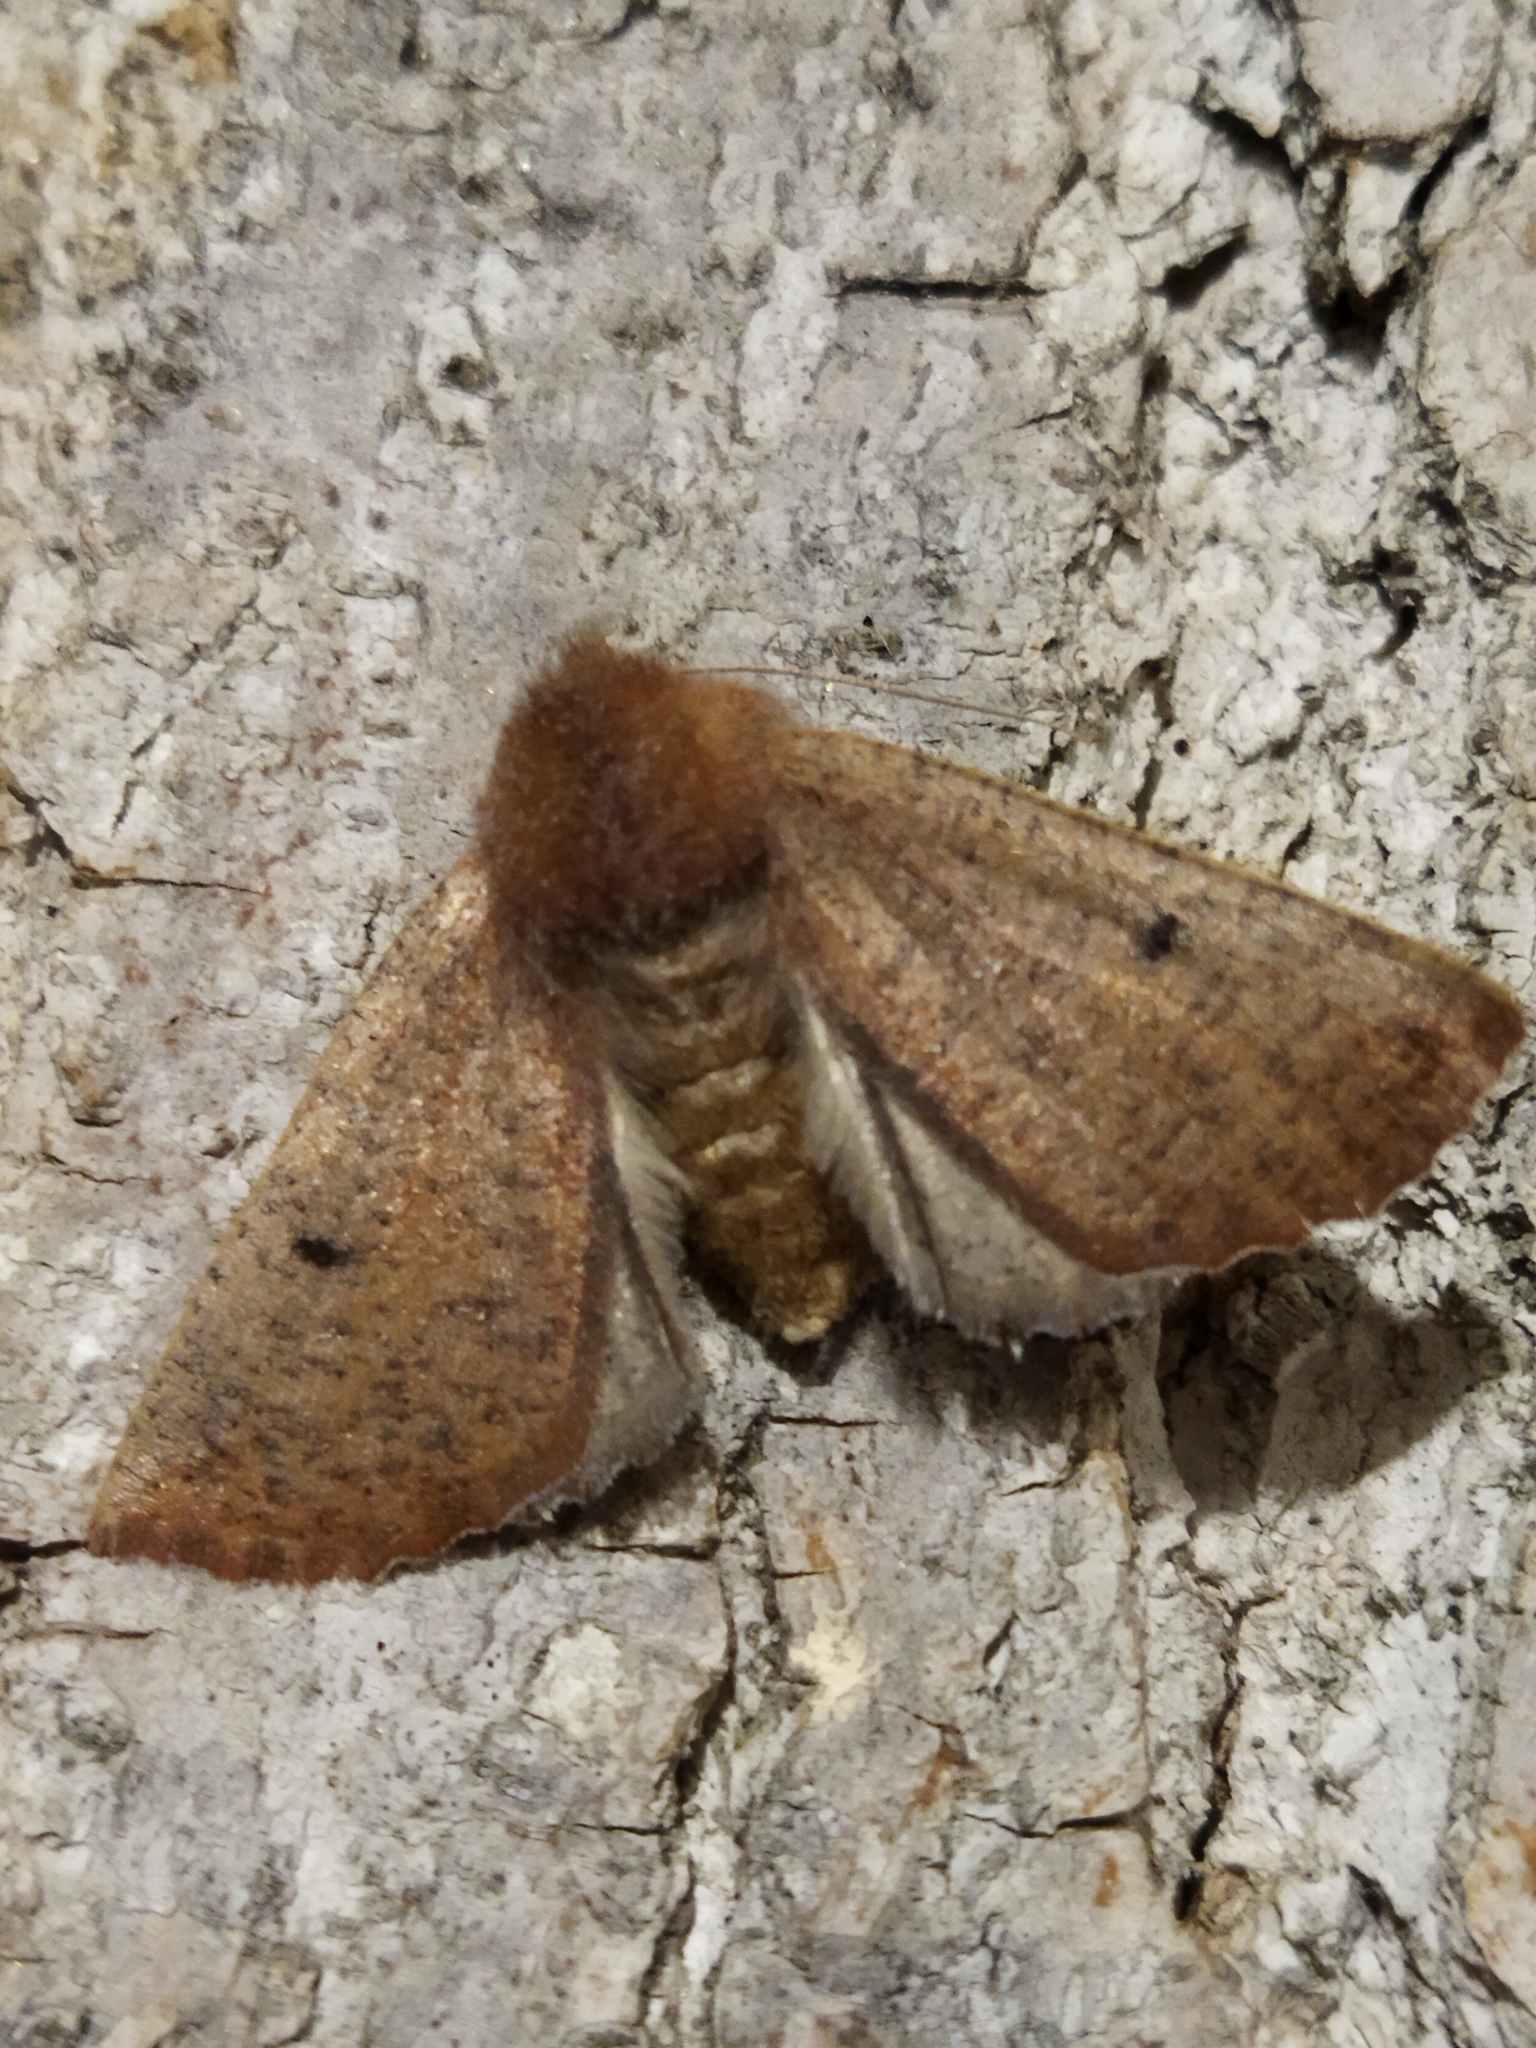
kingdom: Animalia
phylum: Arthropoda
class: Insecta
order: Lepidoptera
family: Geometridae
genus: Dasycorsa
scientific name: Dasycorsa modesta
